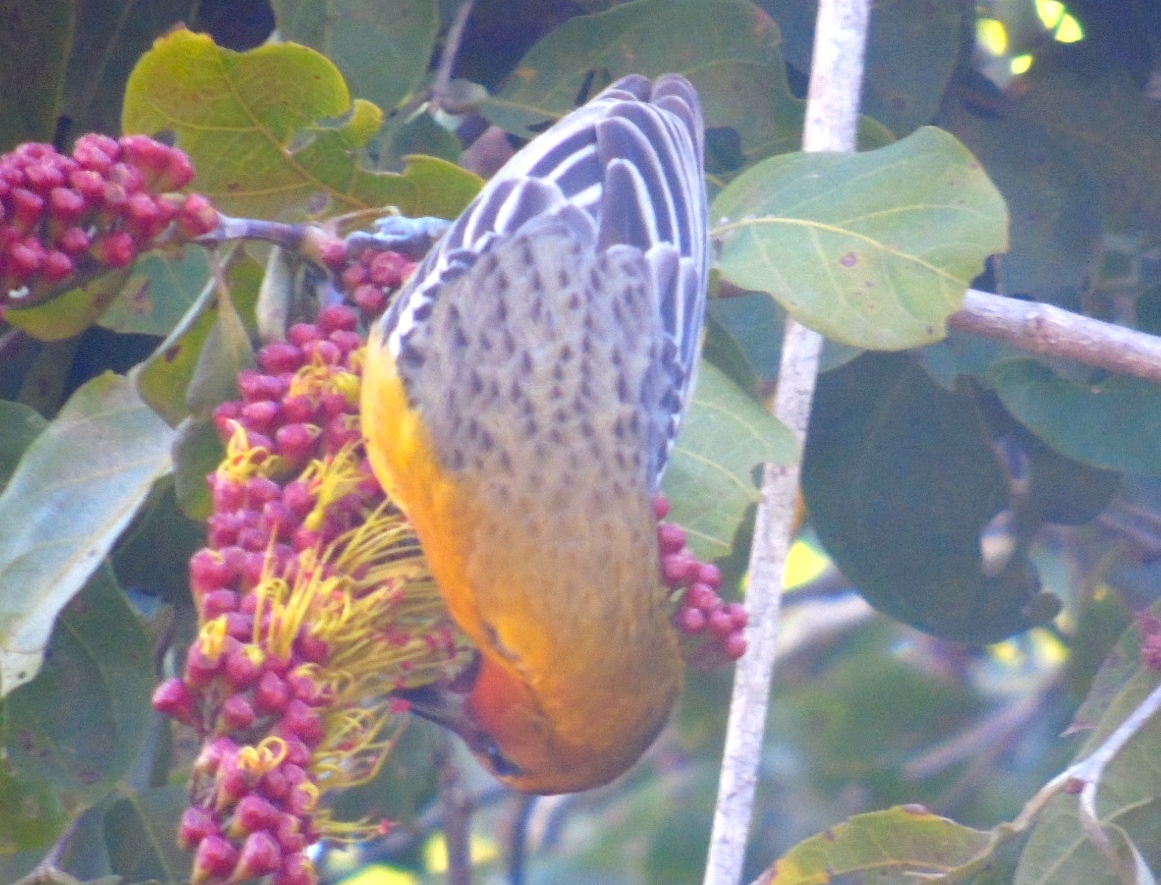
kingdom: Animalia
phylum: Chordata
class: Aves
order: Passeriformes
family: Icteridae
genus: Icterus
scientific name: Icterus pustulatus
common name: Streak-backed oriole
